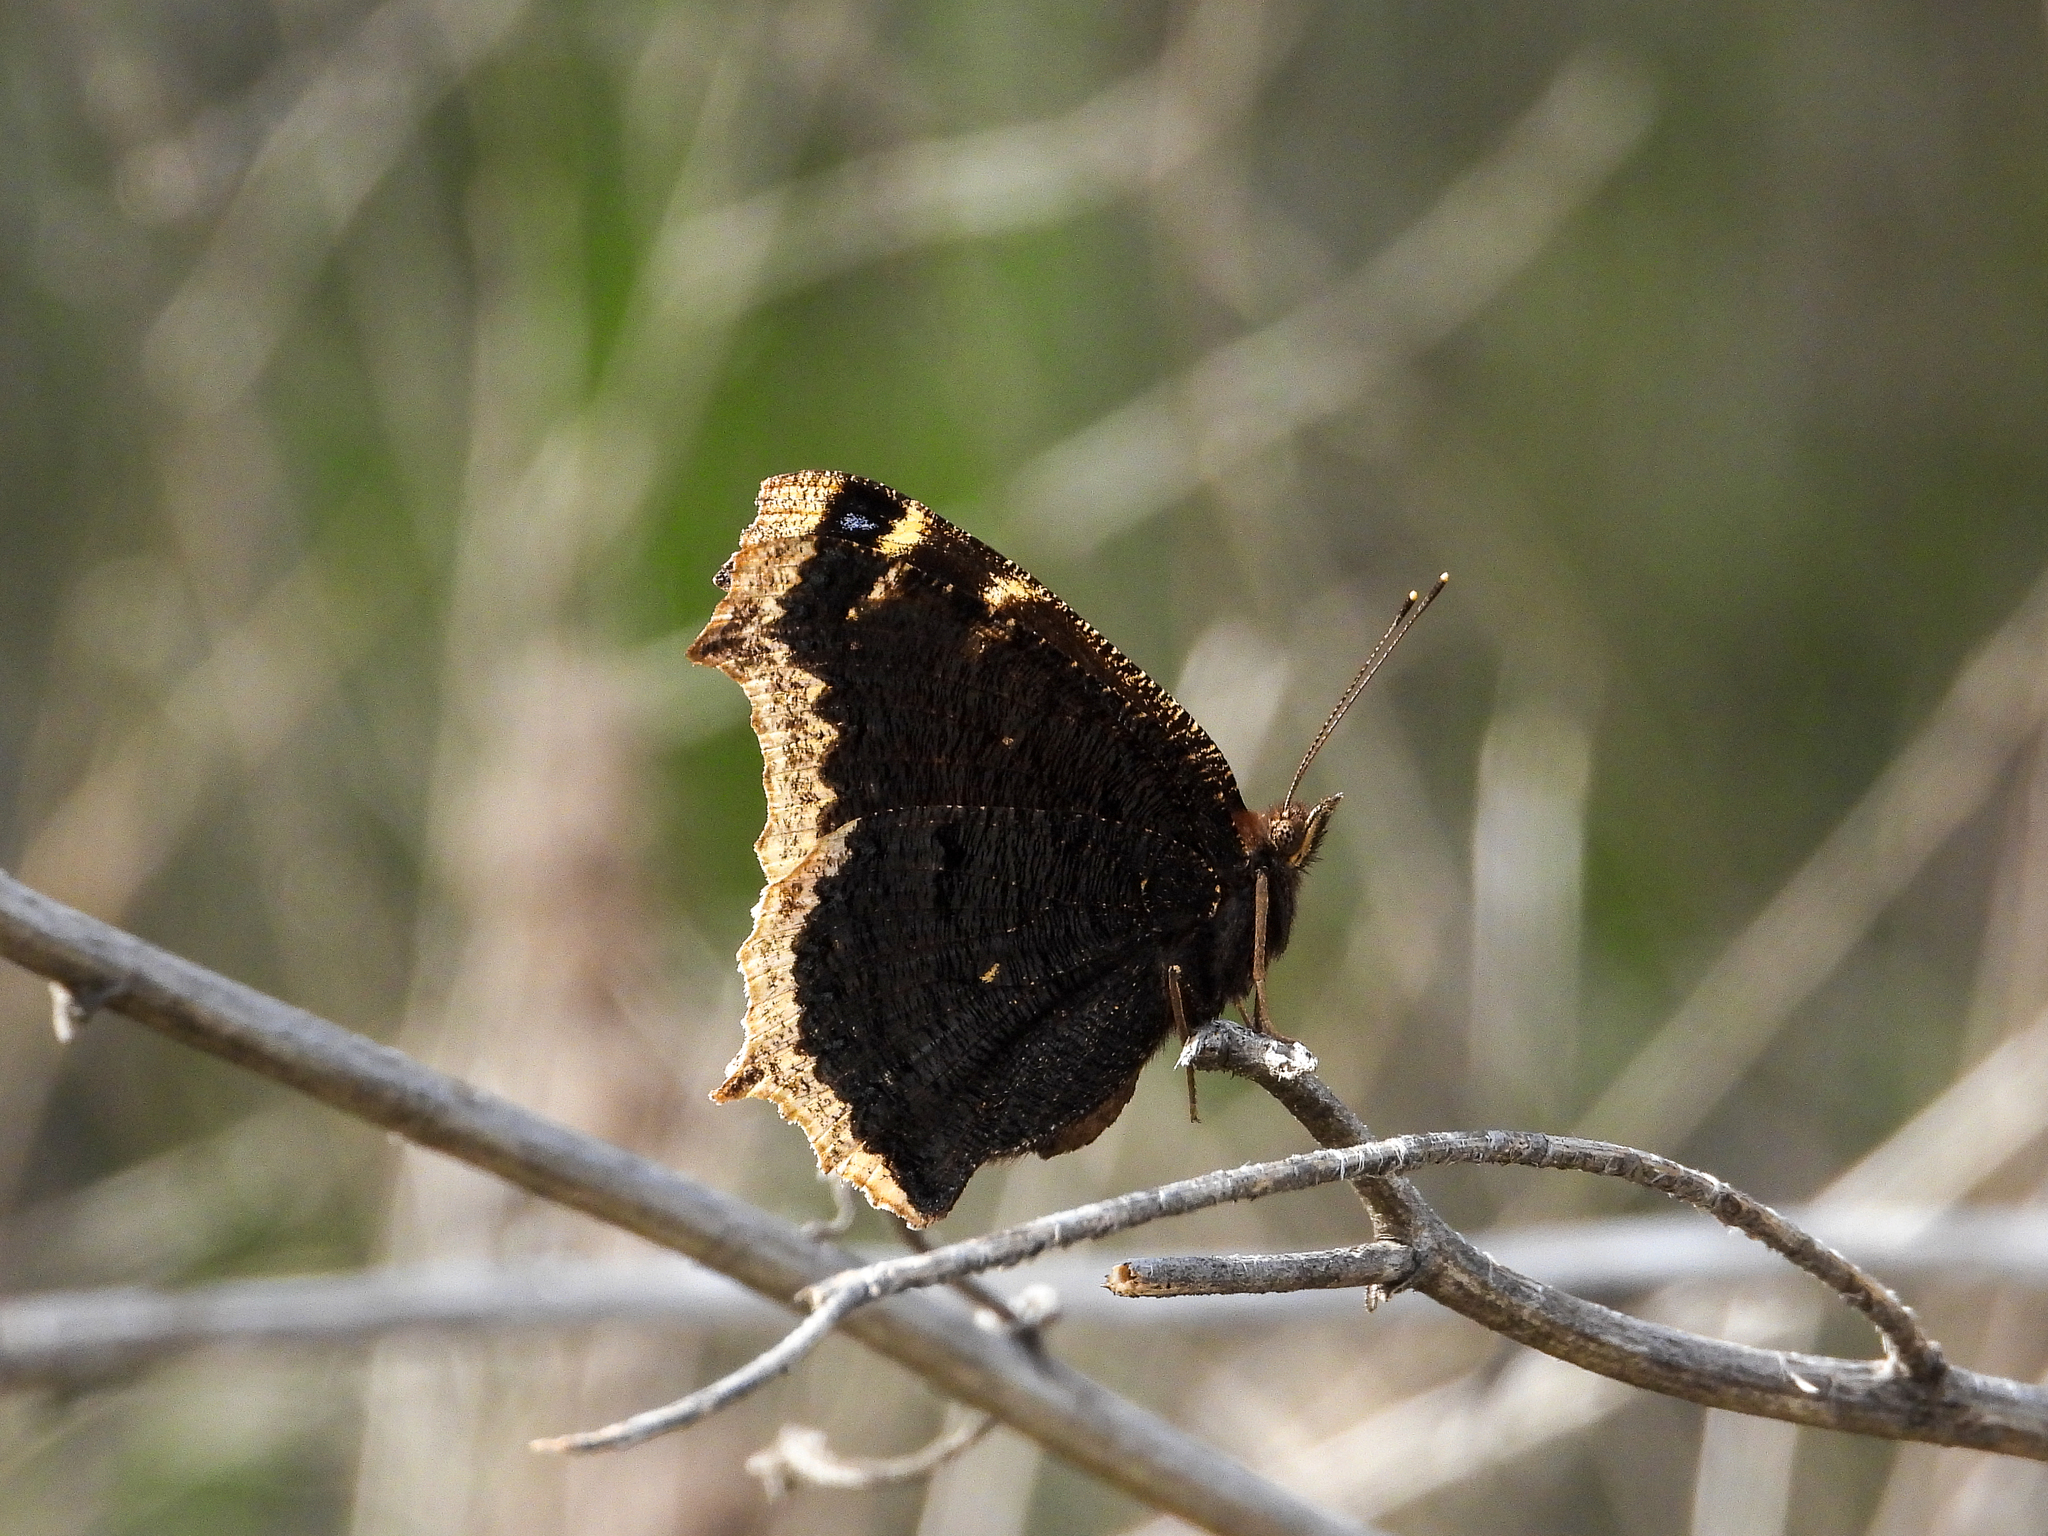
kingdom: Animalia
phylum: Arthropoda
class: Insecta
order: Lepidoptera
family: Nymphalidae
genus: Nymphalis
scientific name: Nymphalis antiopa
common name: Camberwell beauty
